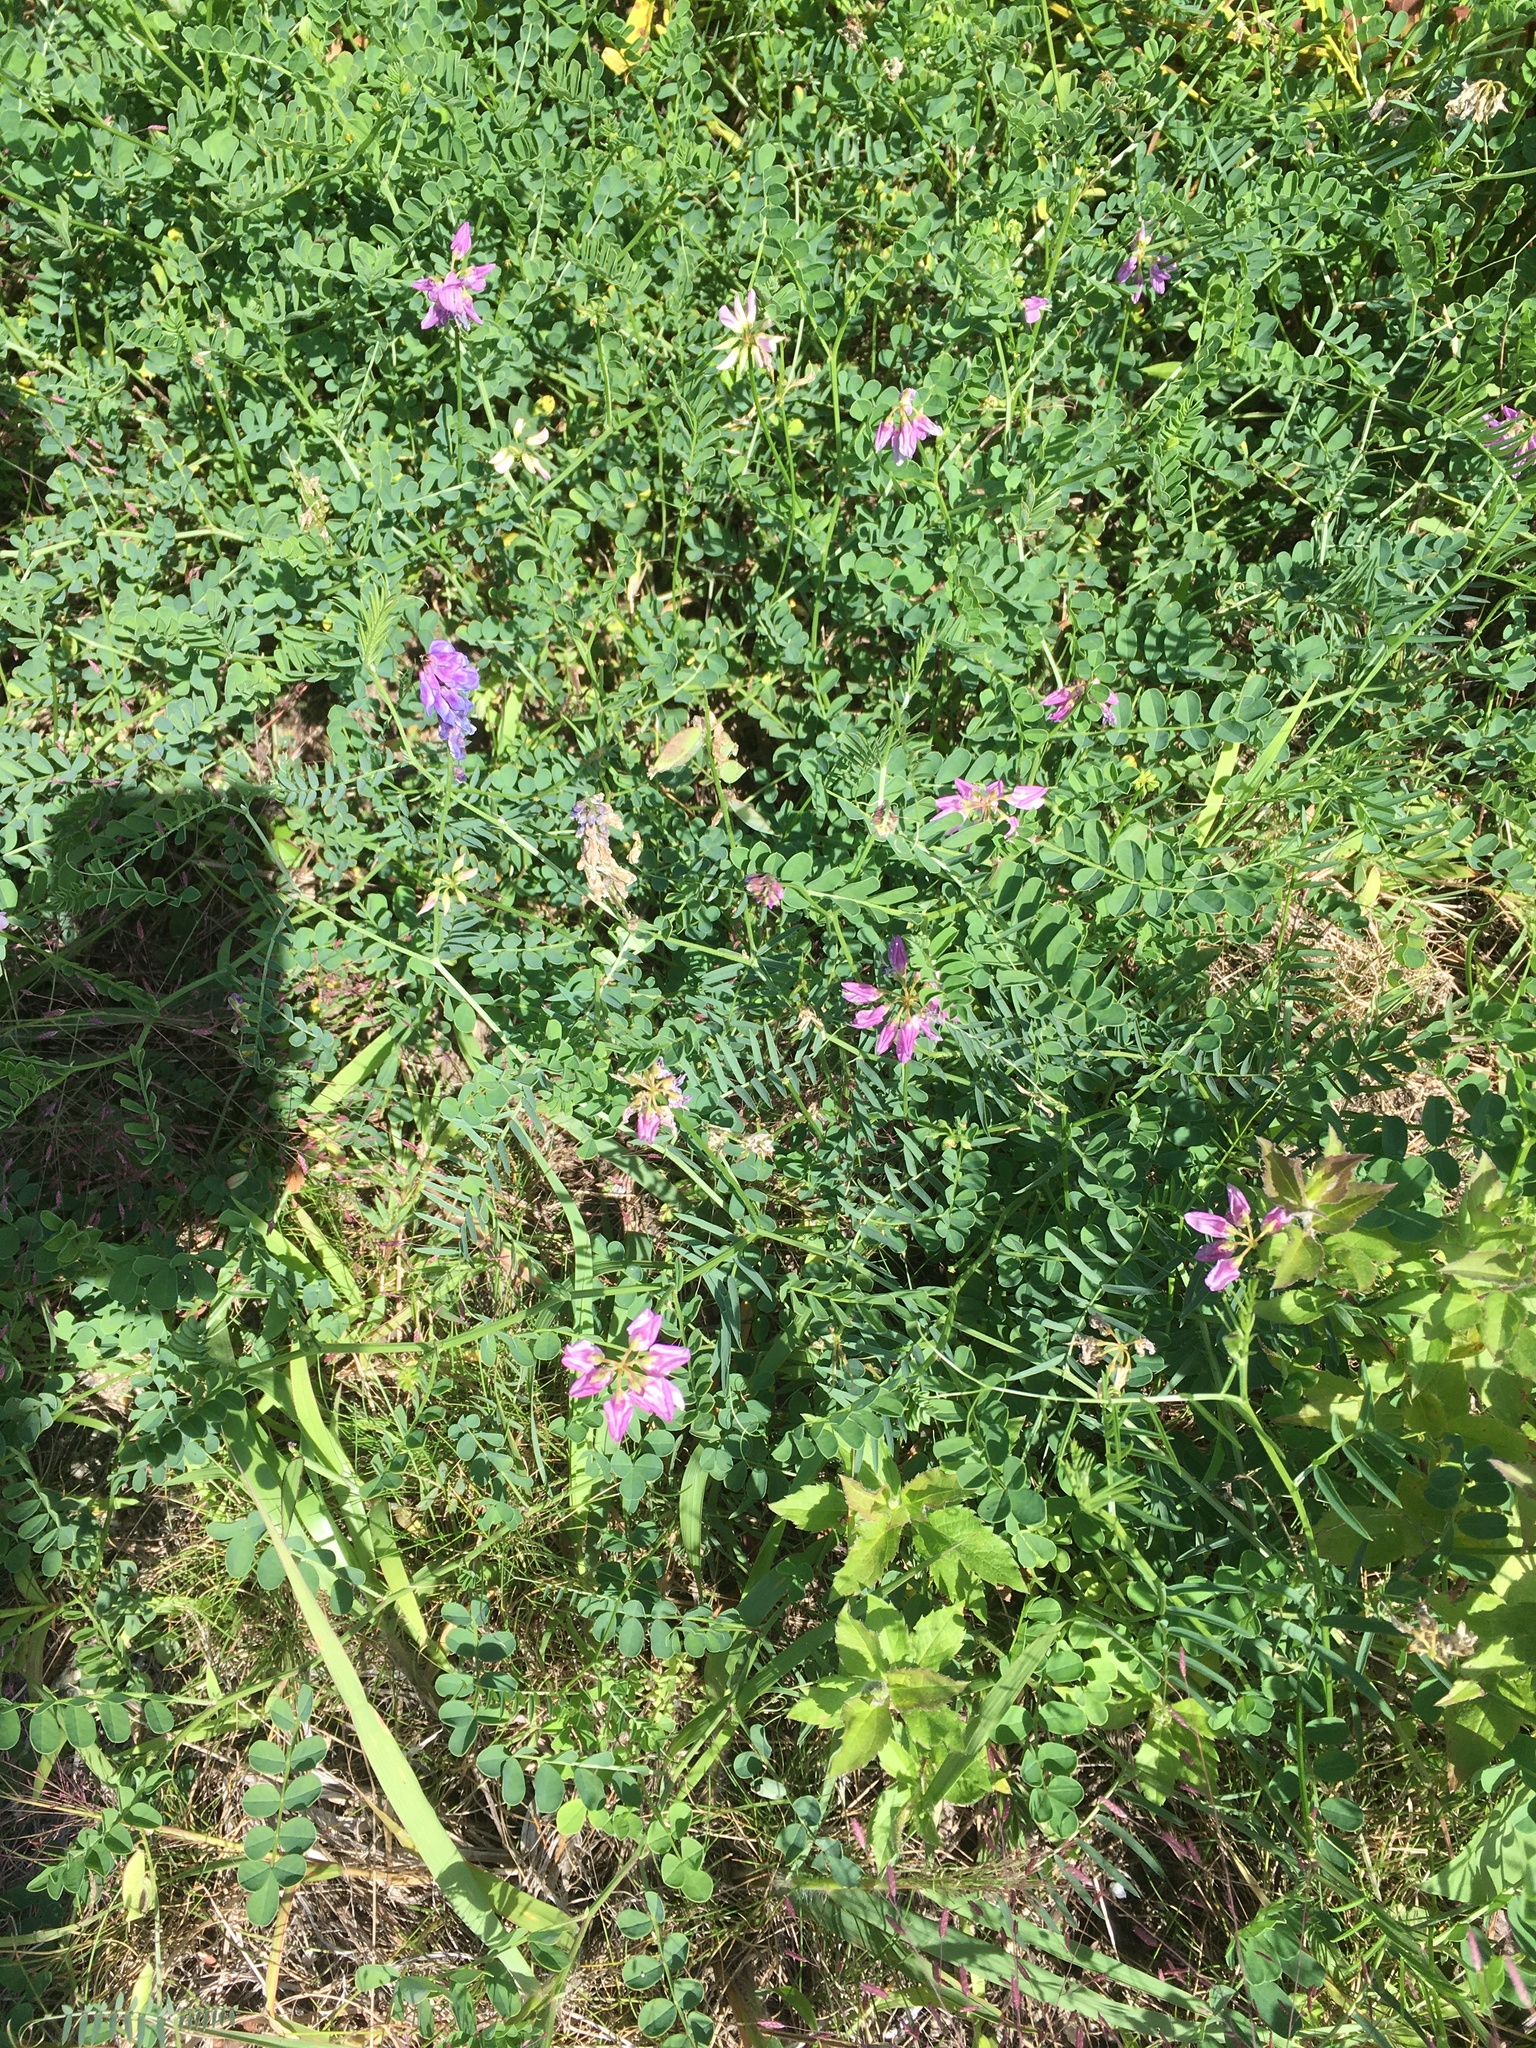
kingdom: Plantae
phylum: Tracheophyta
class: Magnoliopsida
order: Fabales
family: Fabaceae
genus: Coronilla
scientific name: Coronilla varia
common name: Crownvetch
